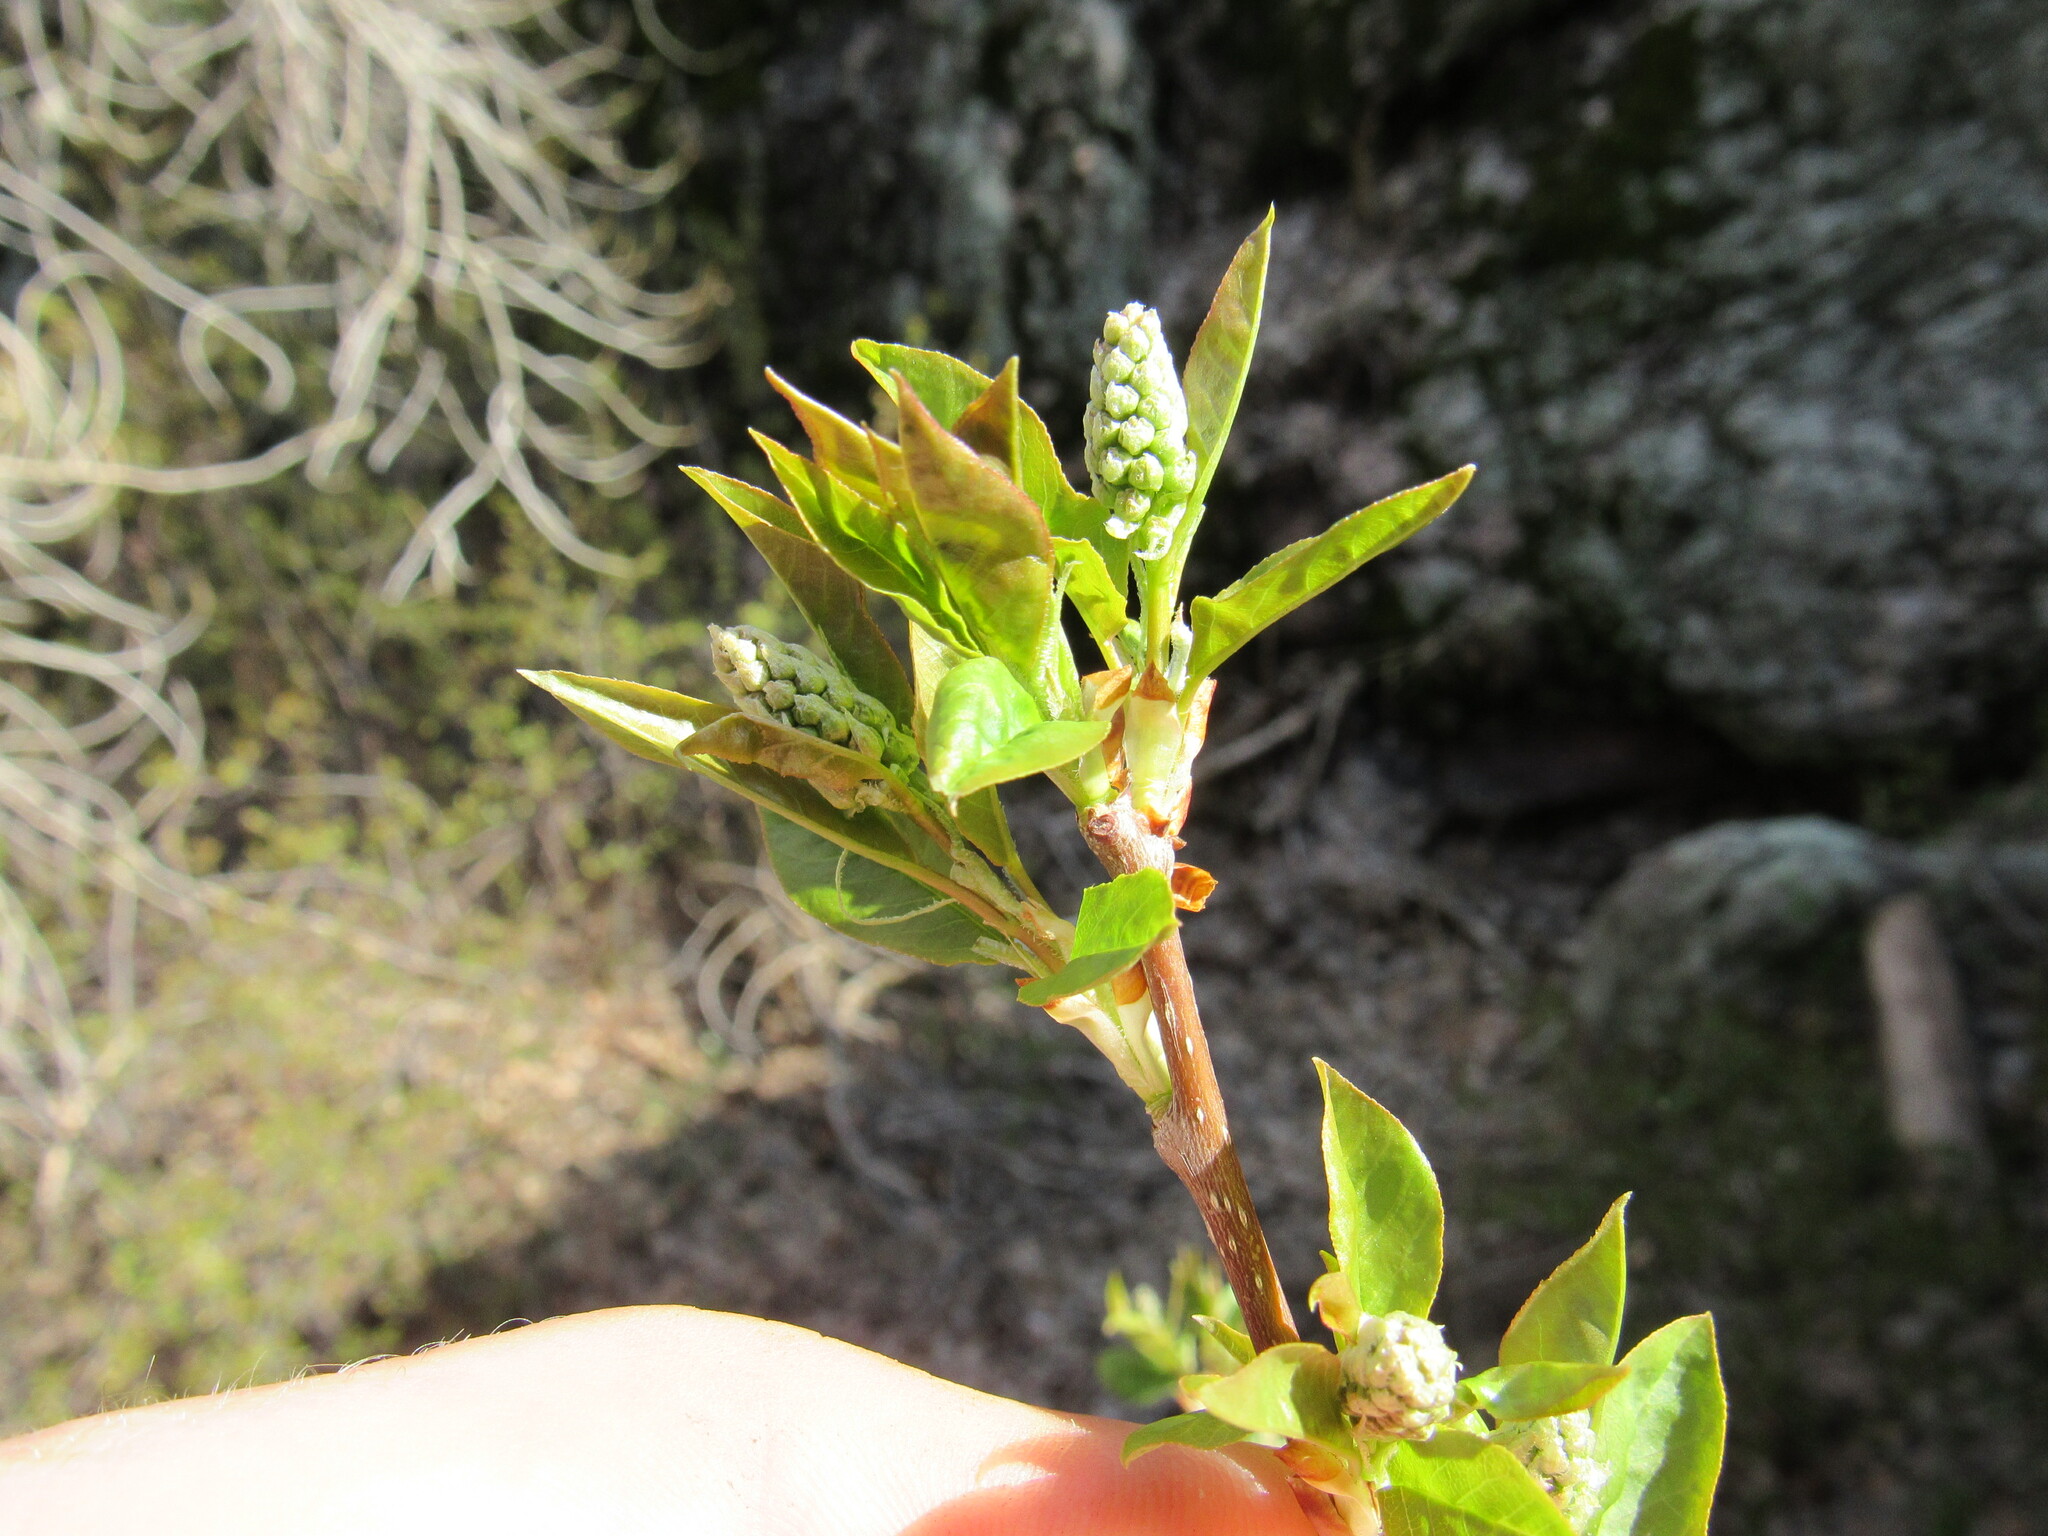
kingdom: Plantae
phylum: Tracheophyta
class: Magnoliopsida
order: Rosales
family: Rosaceae
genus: Prunus
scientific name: Prunus virginiana
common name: Chokecherry
